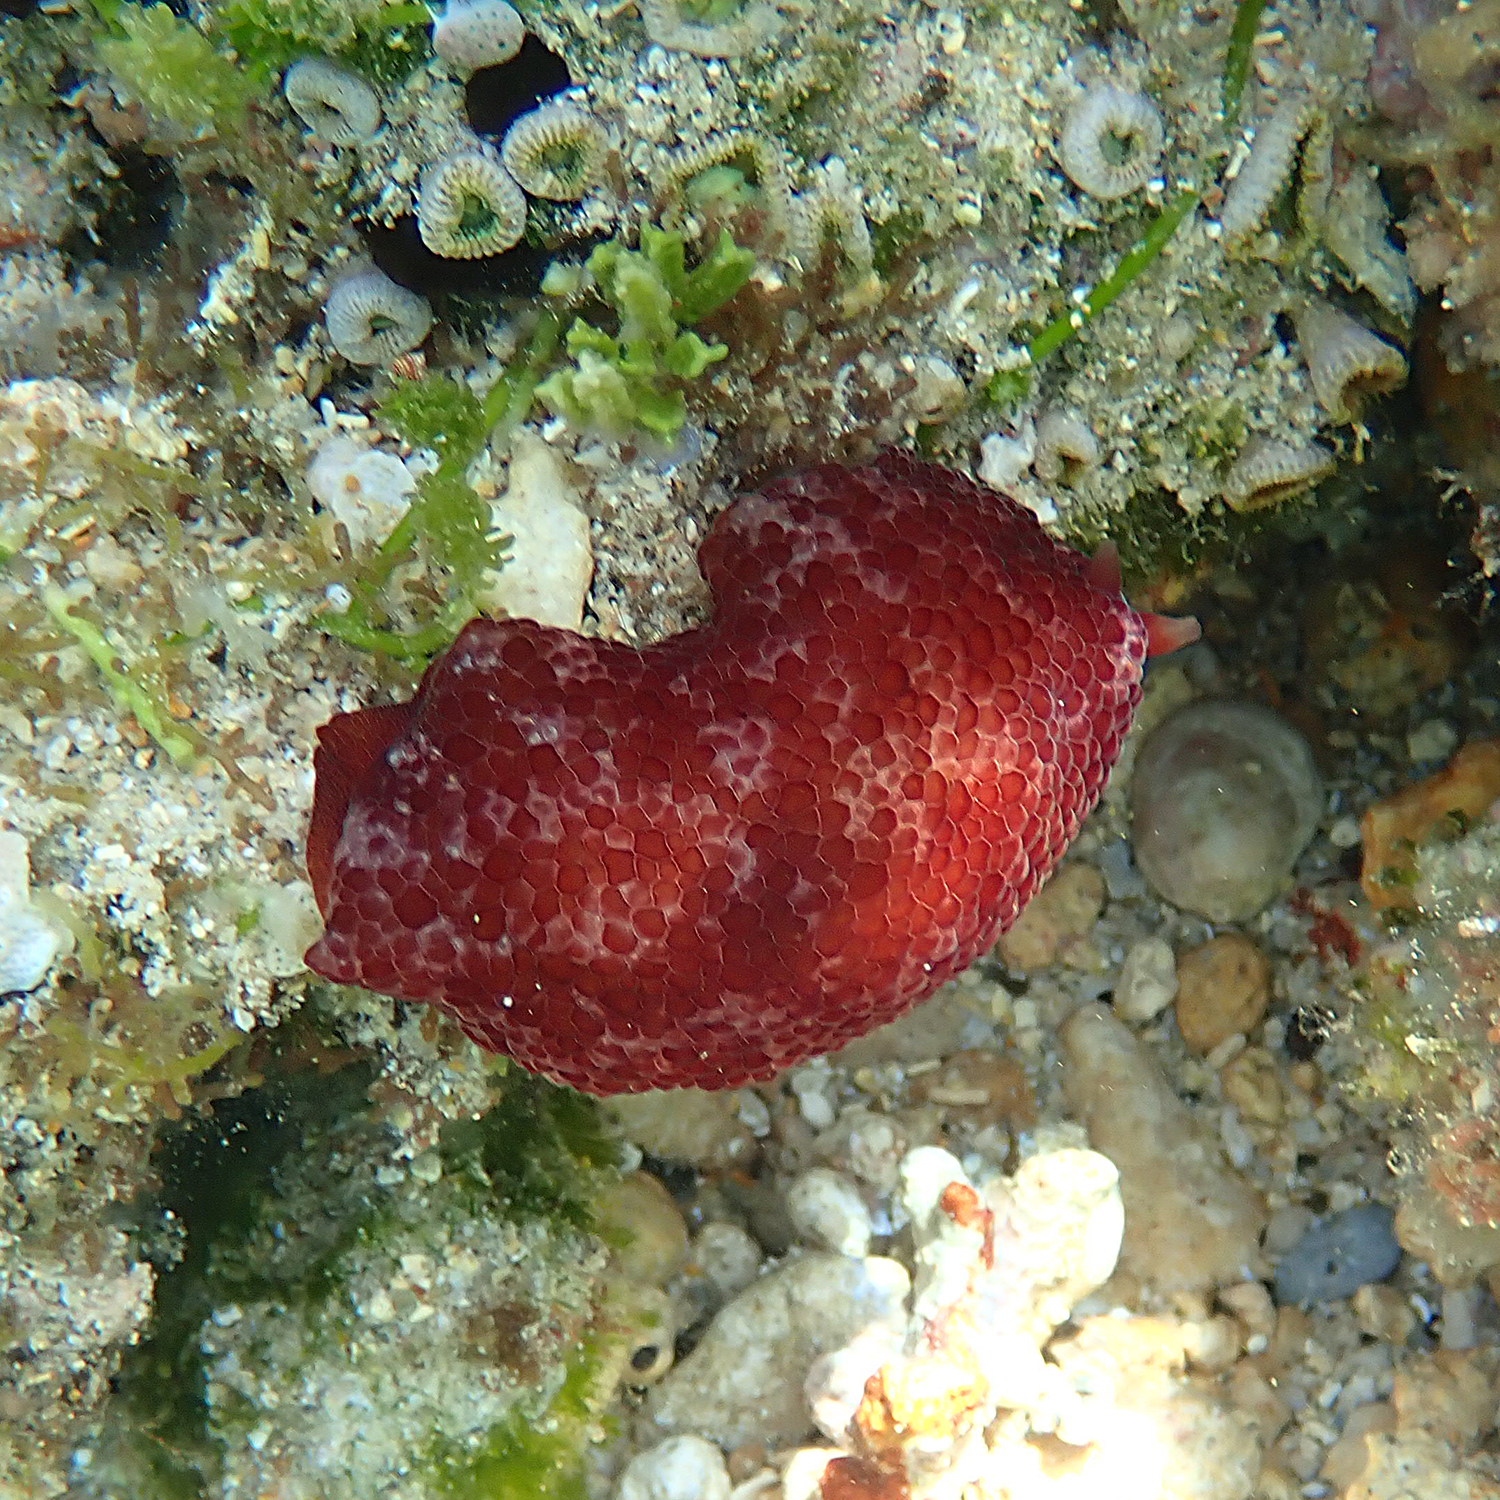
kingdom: Animalia
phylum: Mollusca
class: Gastropoda
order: Pleurobranchida
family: Pleurobranchidae
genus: Pleurobranchus
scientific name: Pleurobranchus peronii
